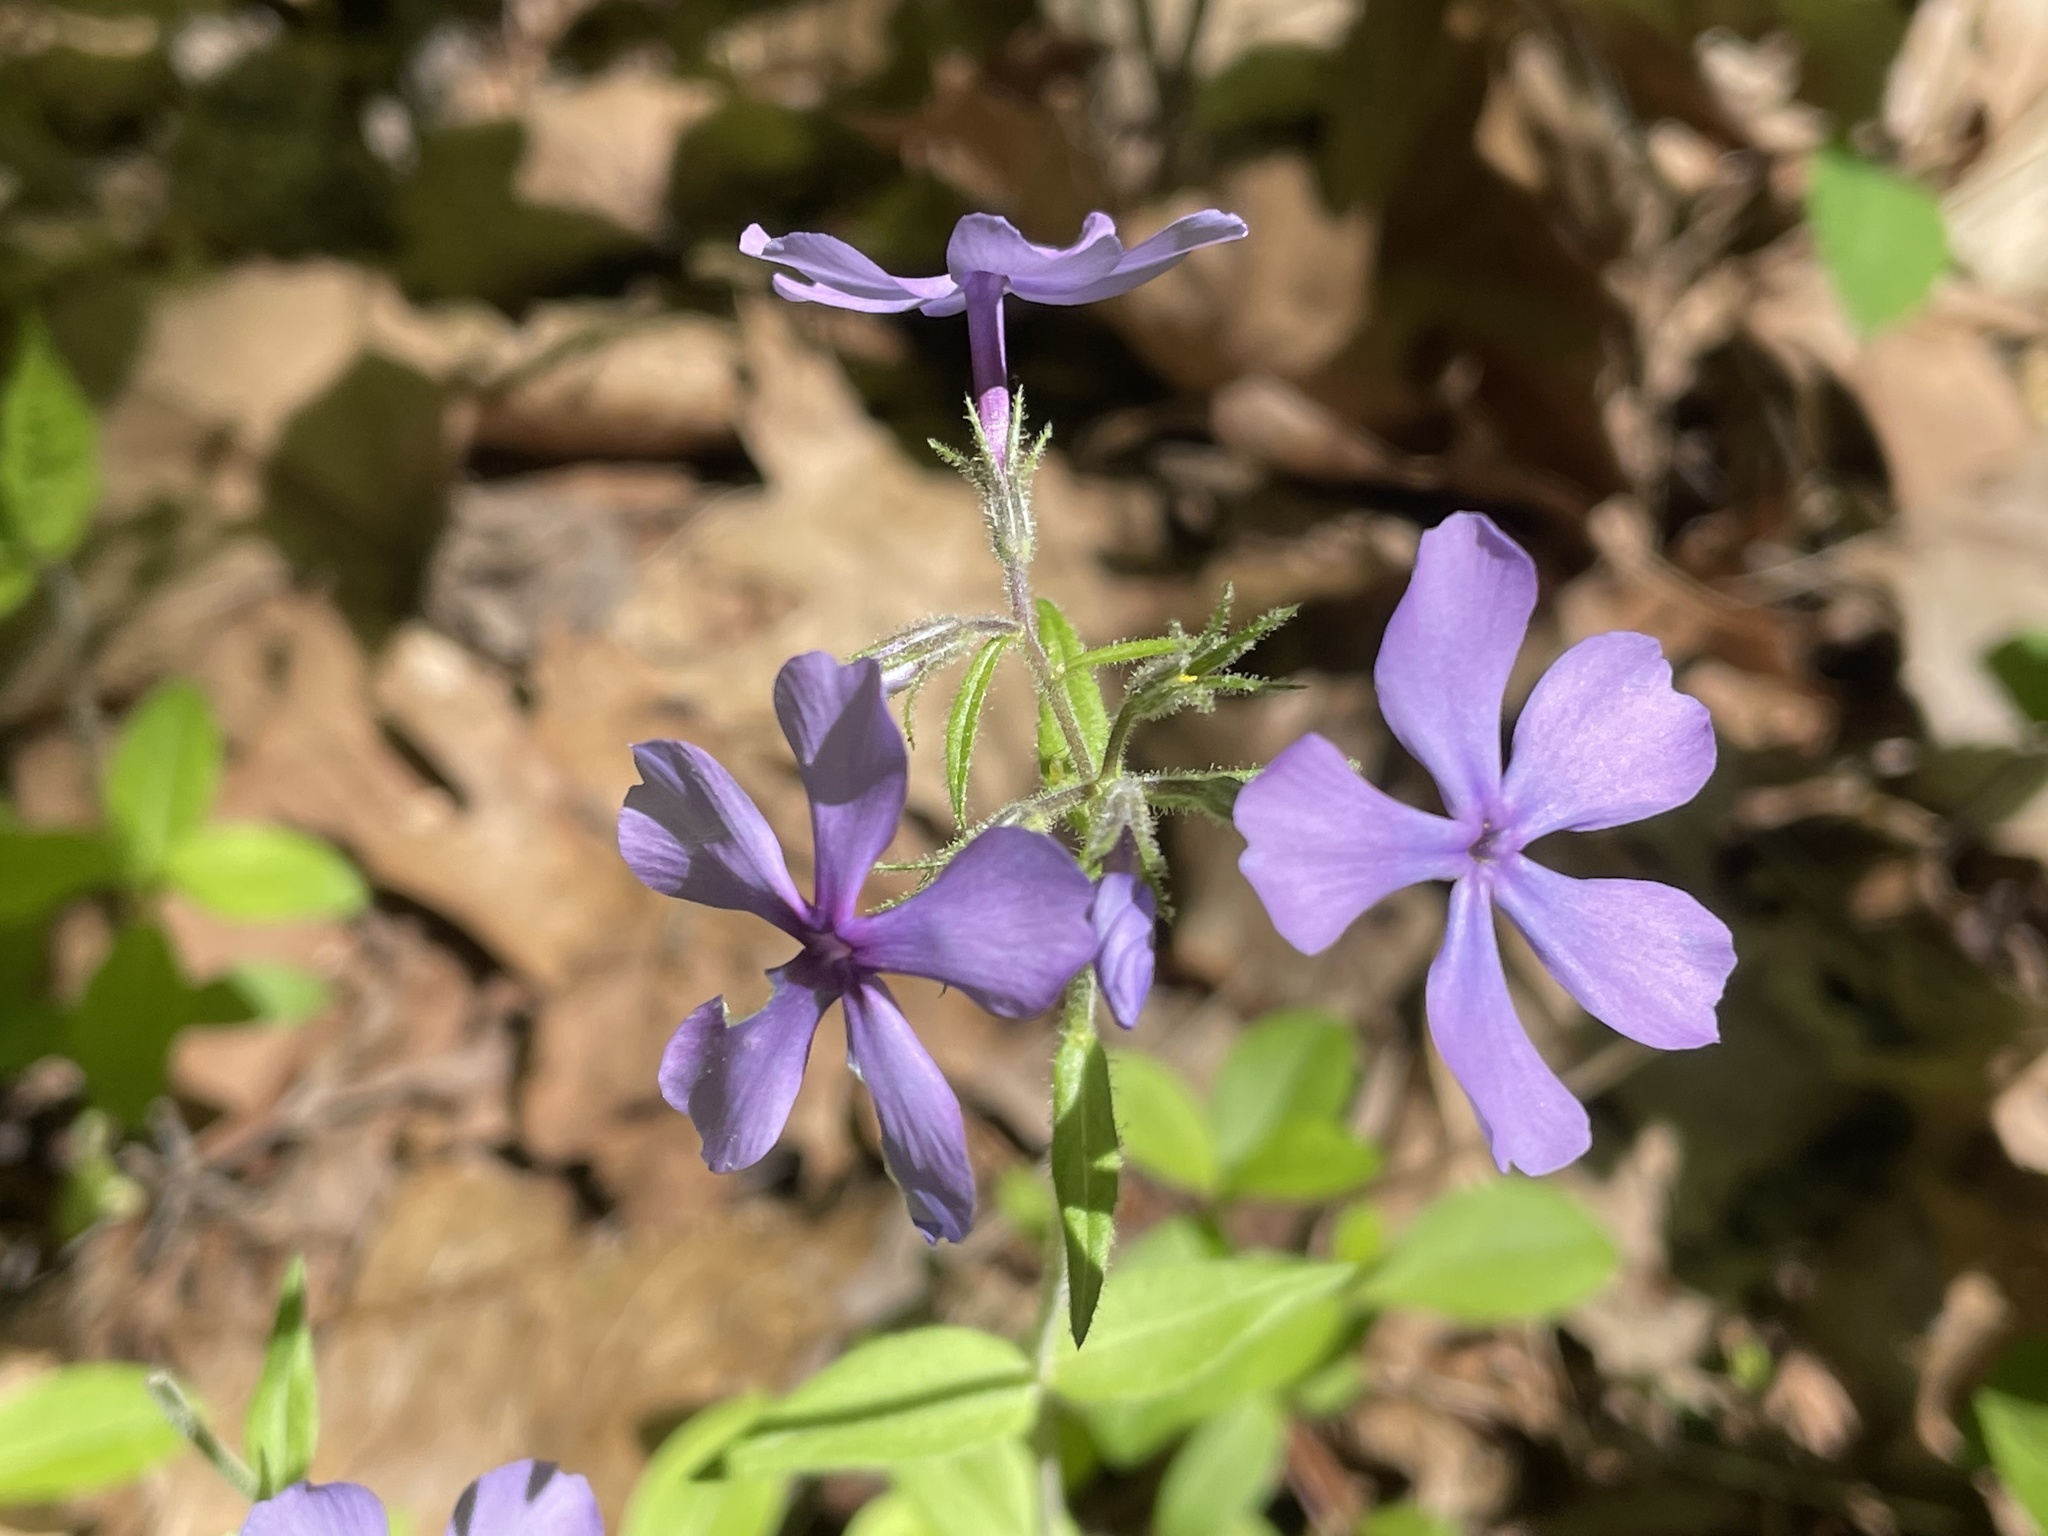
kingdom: Plantae
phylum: Tracheophyta
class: Magnoliopsida
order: Ericales
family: Polemoniaceae
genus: Phlox
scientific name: Phlox divaricata
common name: Blue phlox
